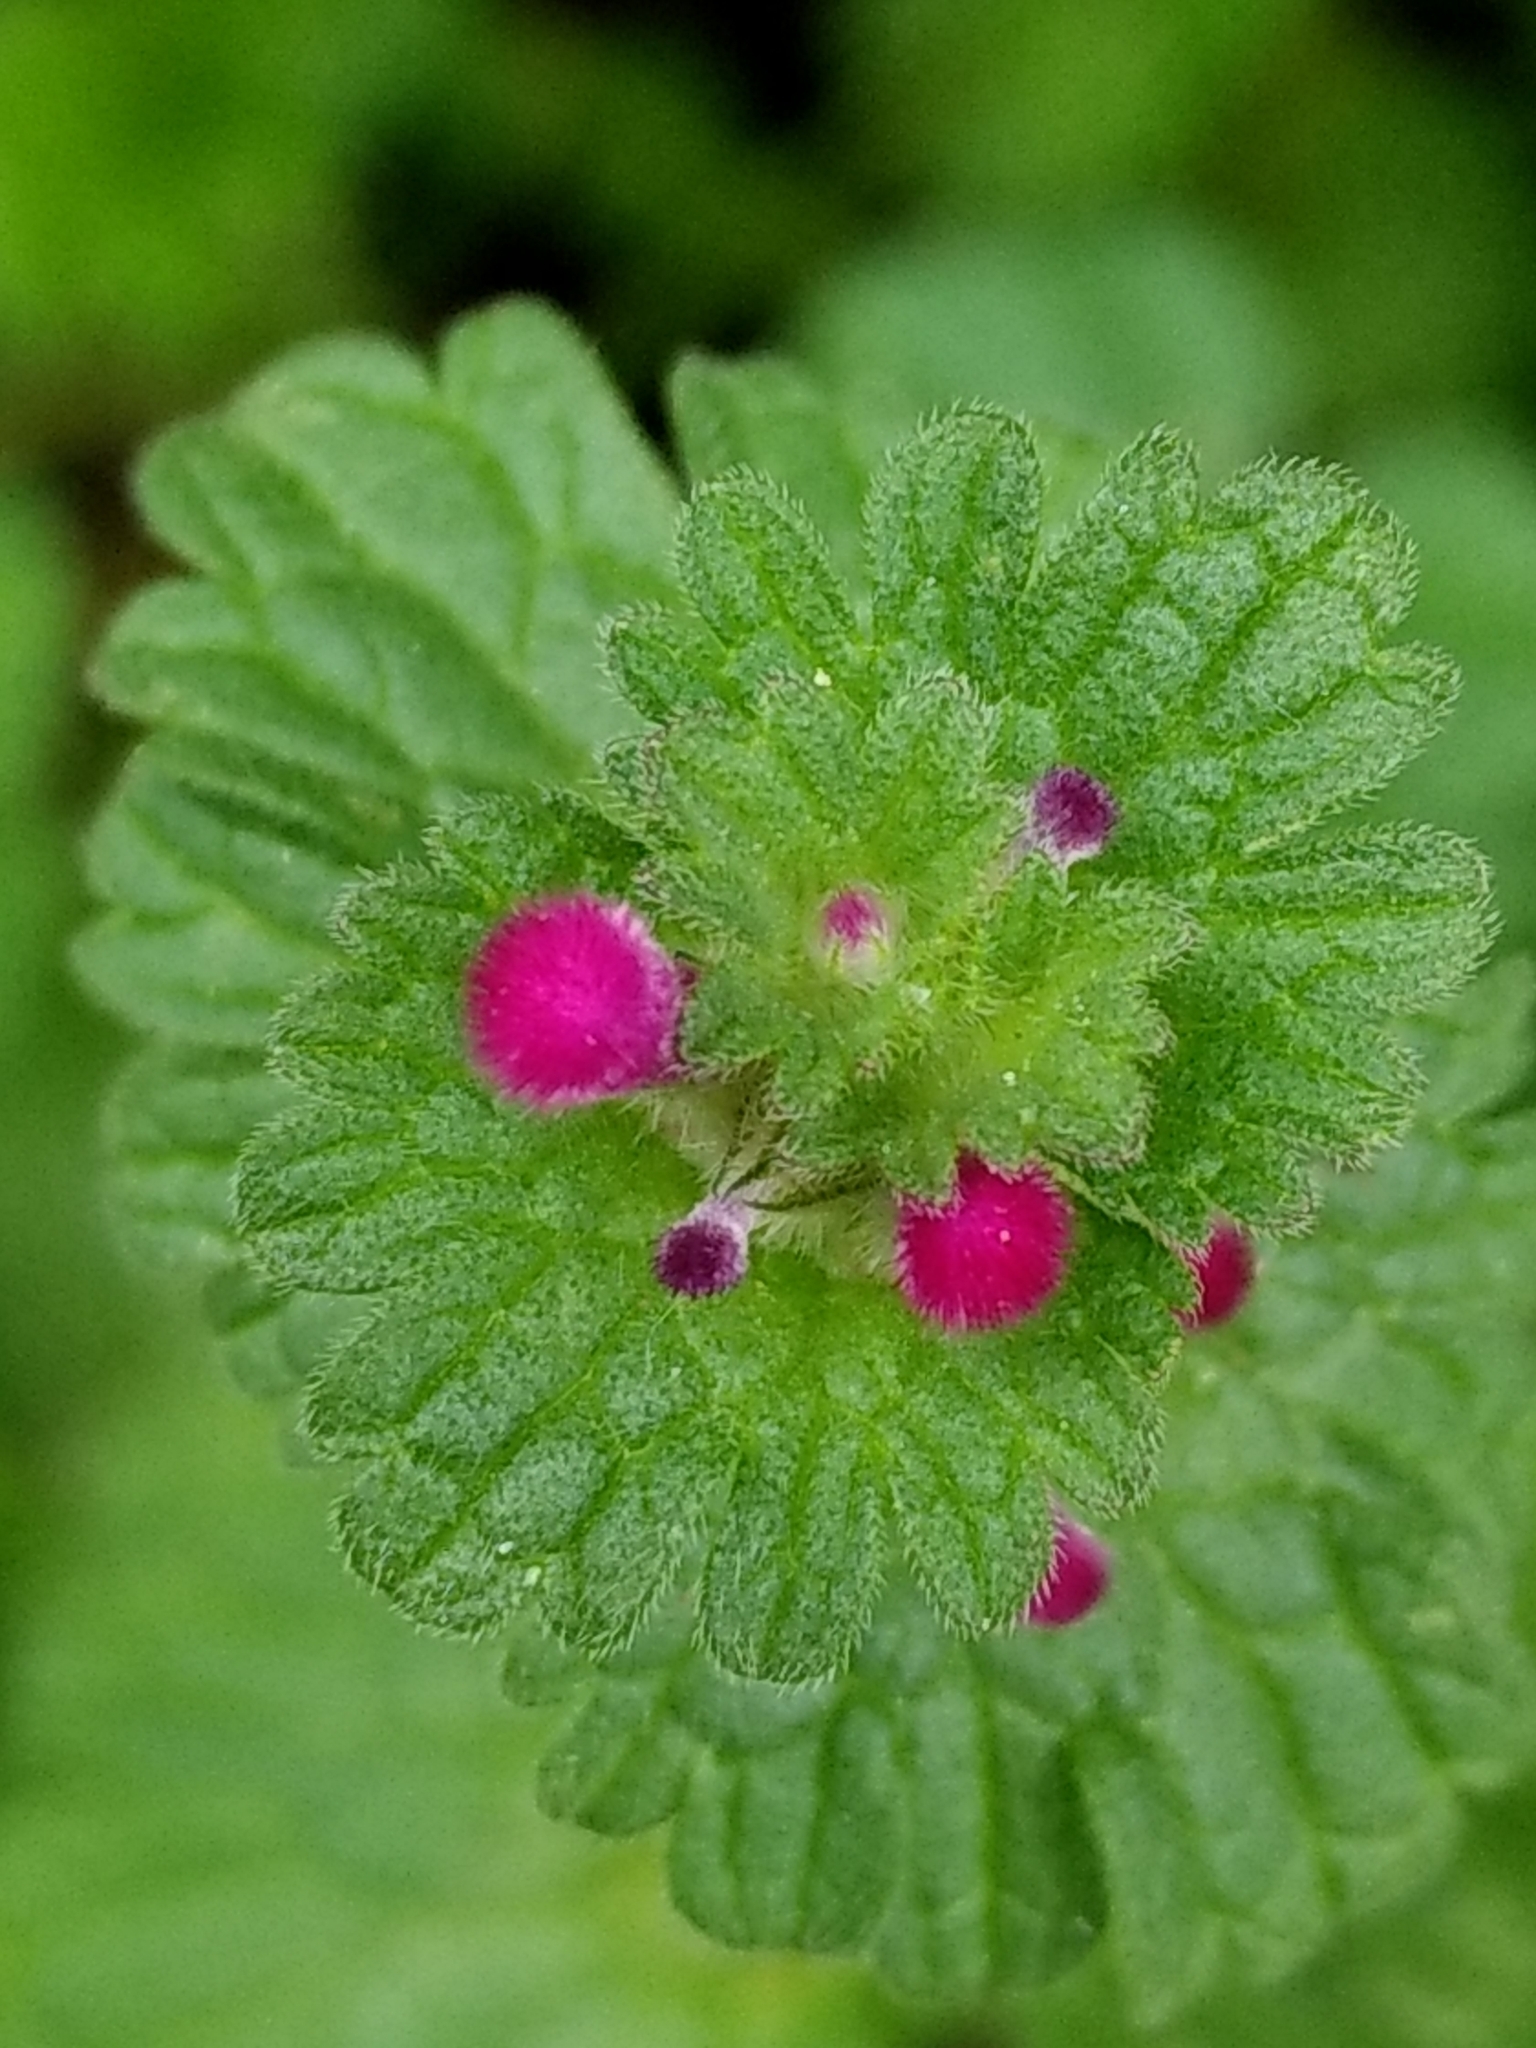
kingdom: Plantae
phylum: Tracheophyta
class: Magnoliopsida
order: Lamiales
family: Lamiaceae
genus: Lamium
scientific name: Lamium amplexicaule
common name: Henbit dead-nettle
